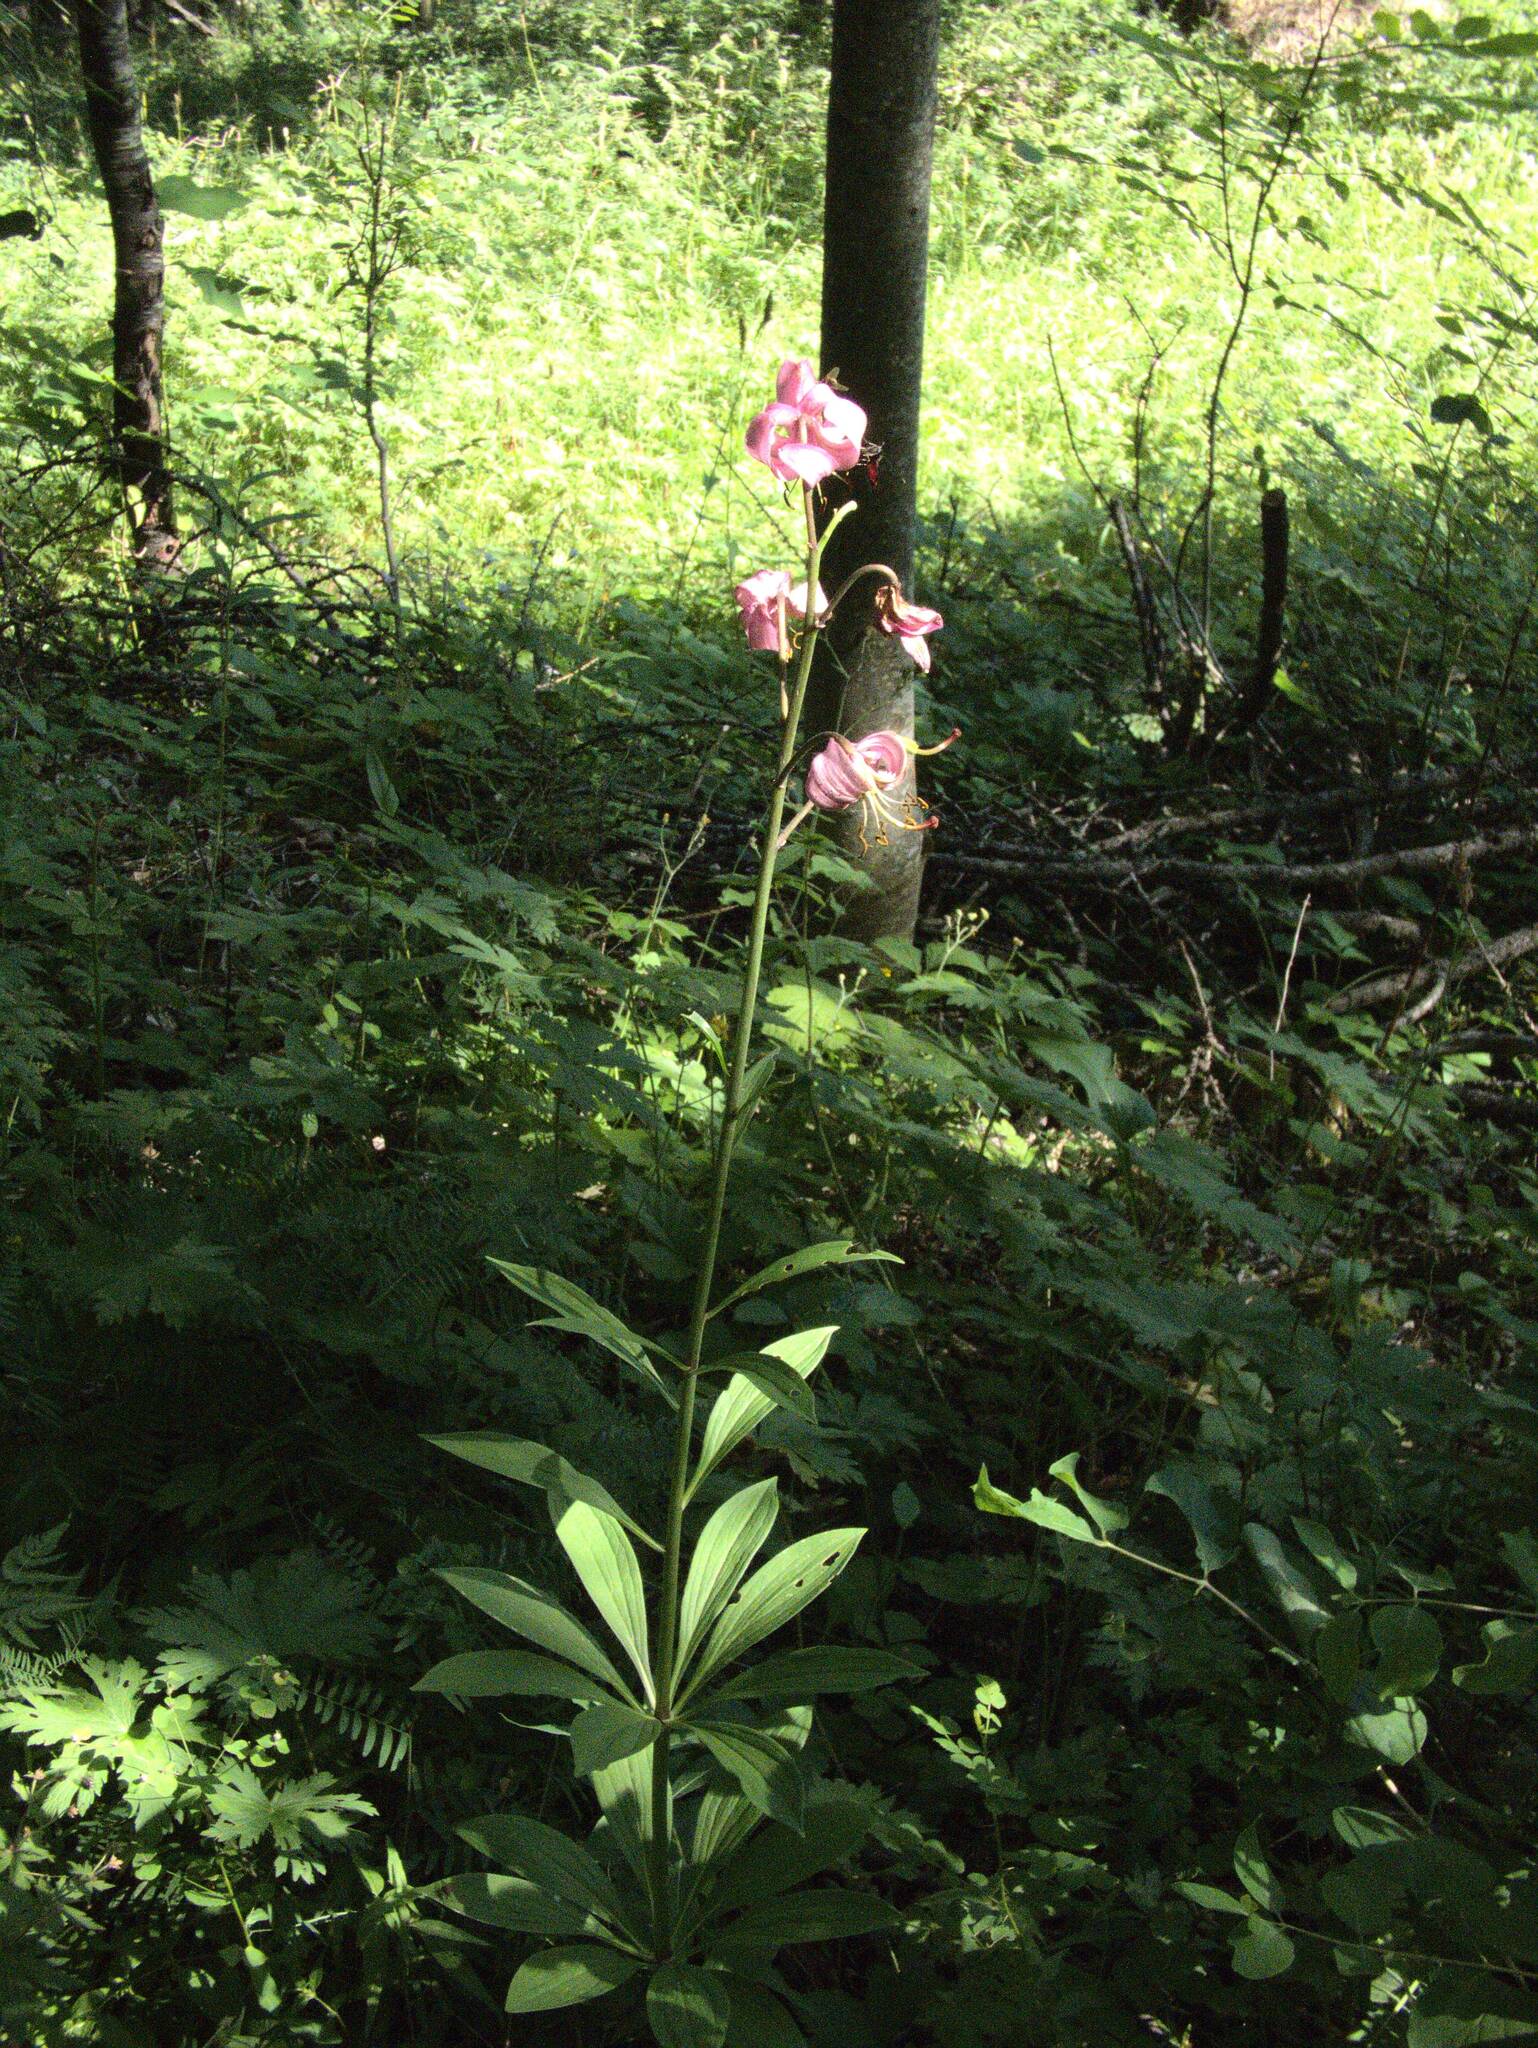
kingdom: Plantae
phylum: Tracheophyta
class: Liliopsida
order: Liliales
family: Liliaceae
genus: Lilium
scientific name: Lilium martagon
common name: Martagon lily
